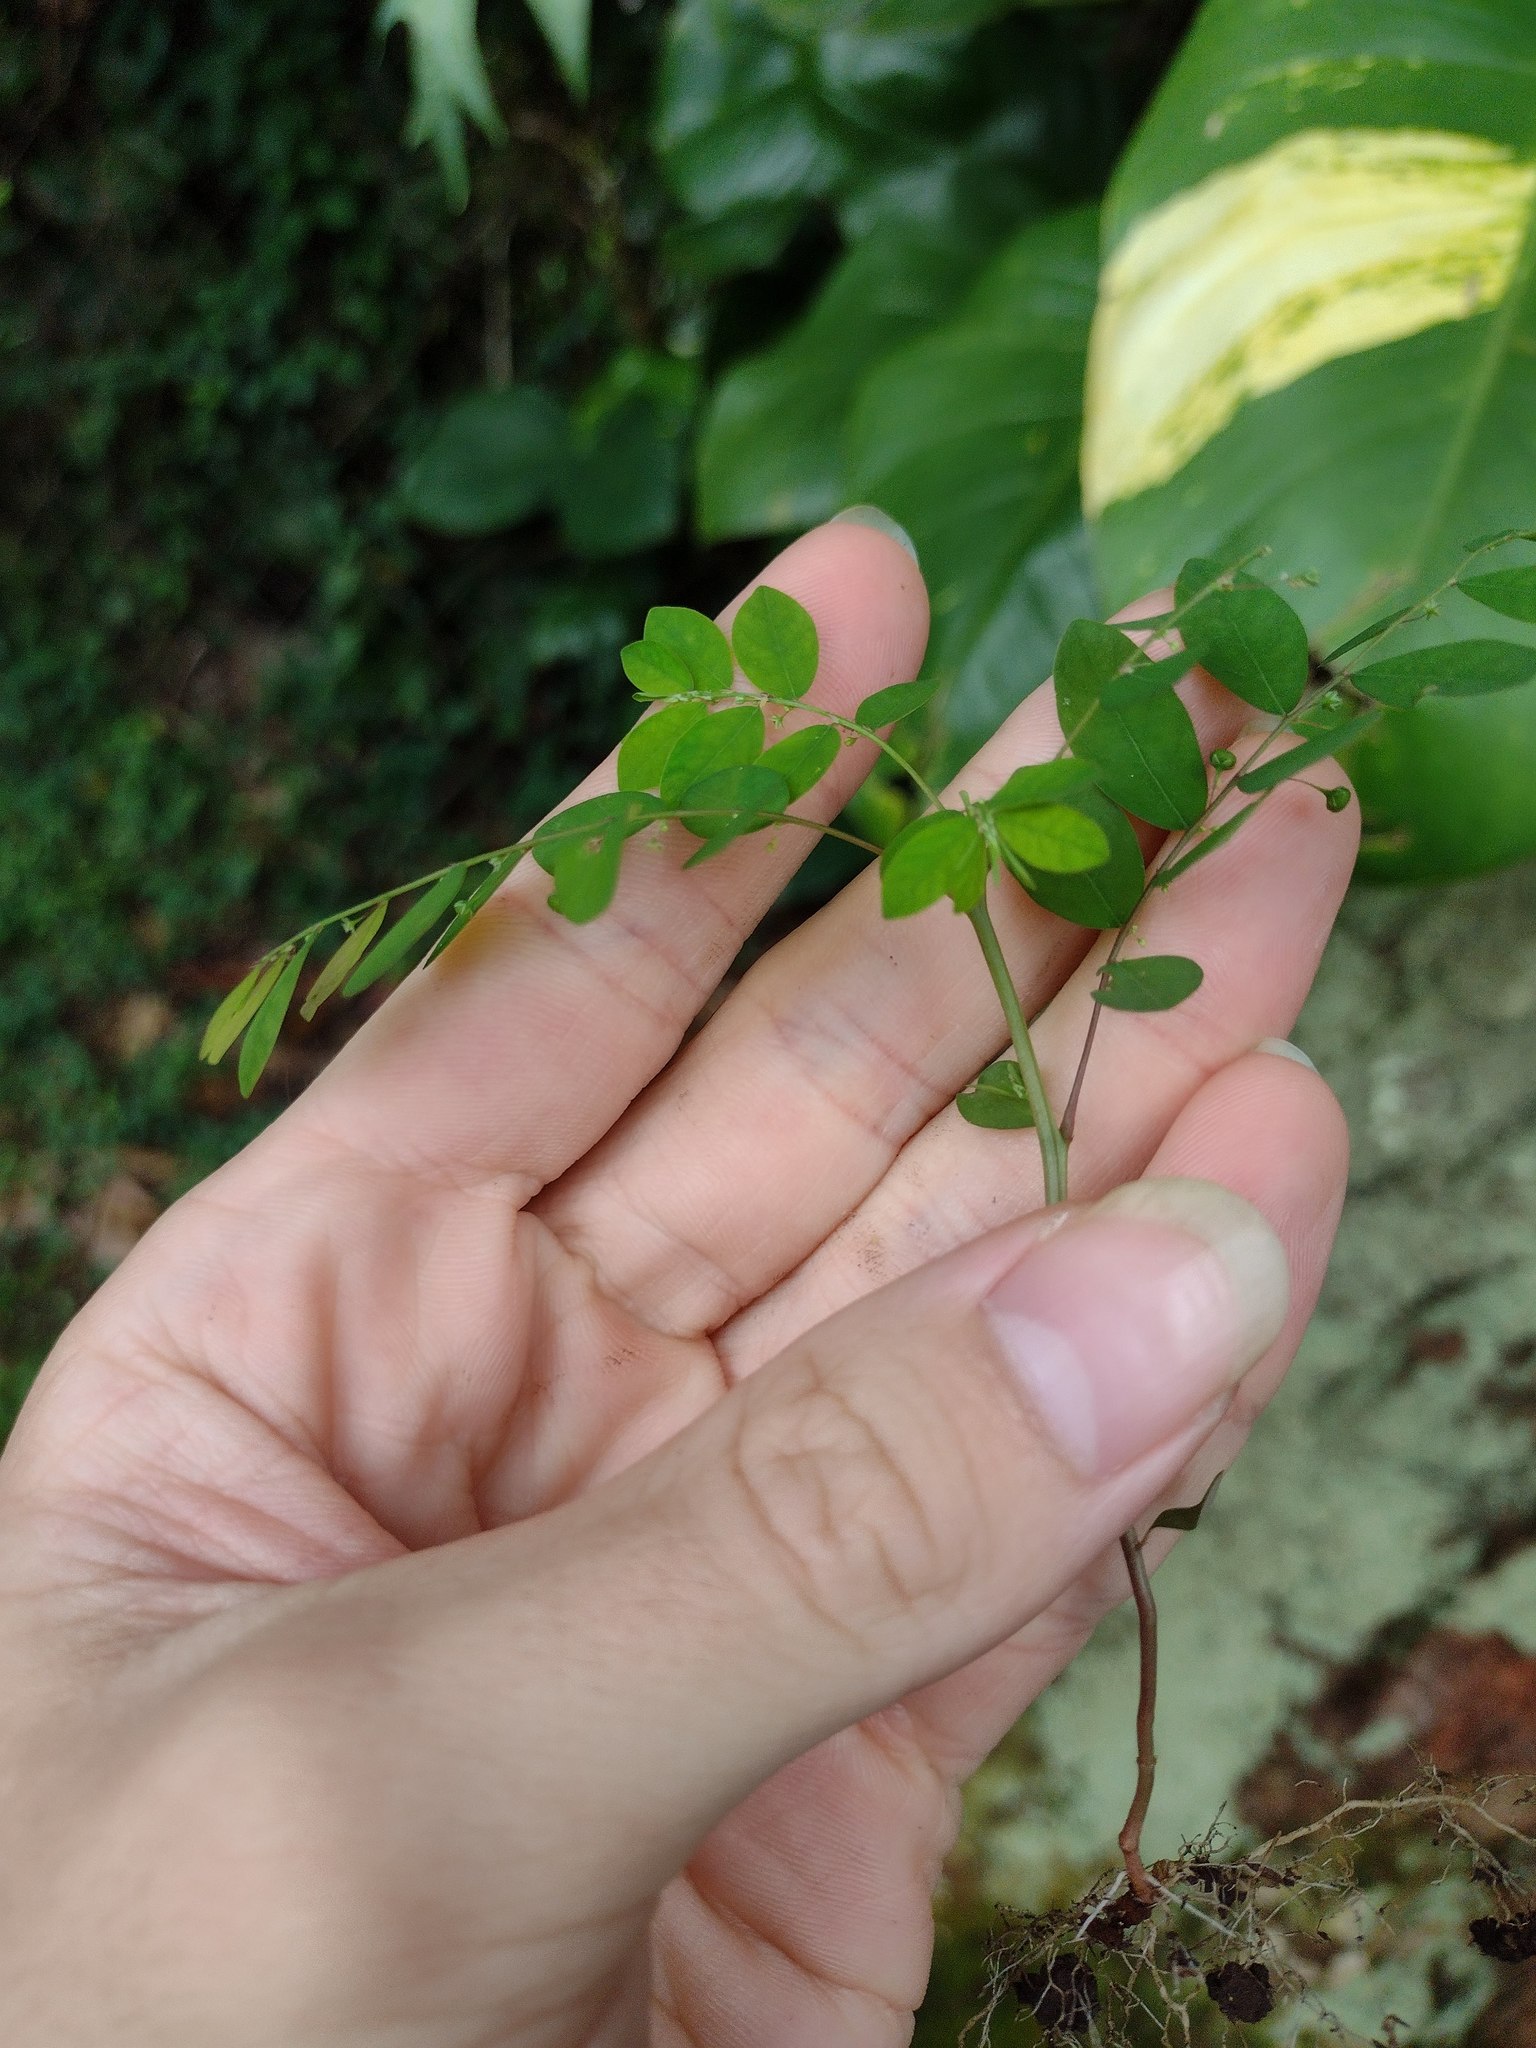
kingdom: Plantae
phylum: Tracheophyta
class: Magnoliopsida
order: Malpighiales
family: Phyllanthaceae
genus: Phyllanthus
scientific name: Phyllanthus tenellus
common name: Mascarene island leaf-flower
